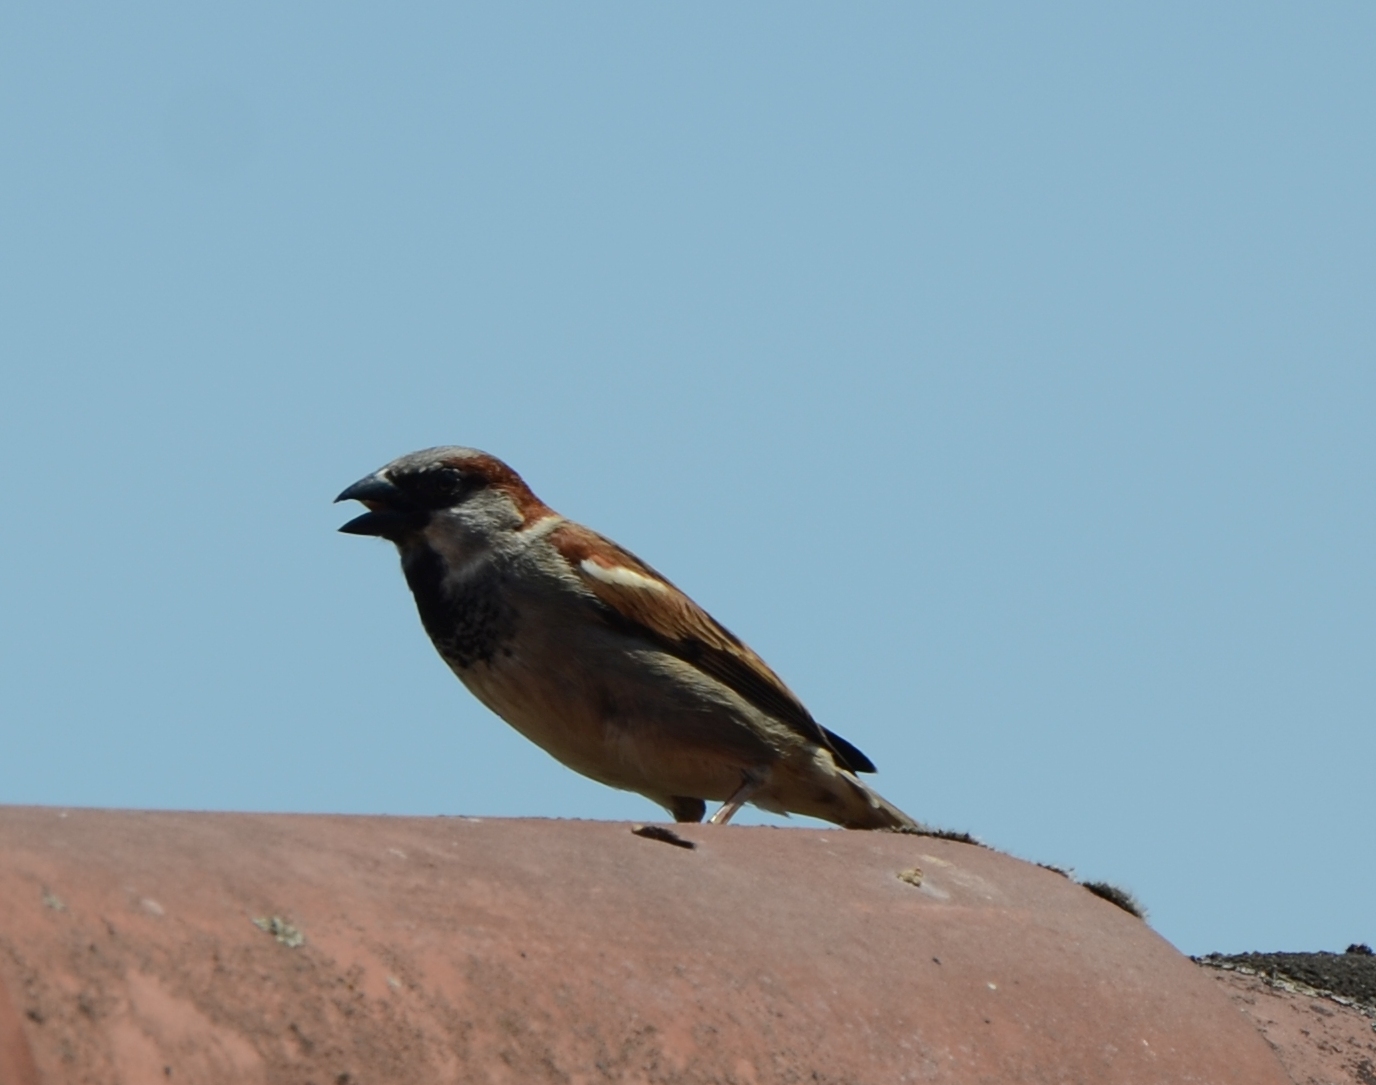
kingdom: Animalia
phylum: Chordata
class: Aves
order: Passeriformes
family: Passeridae
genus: Passer
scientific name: Passer domesticus
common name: House sparrow
